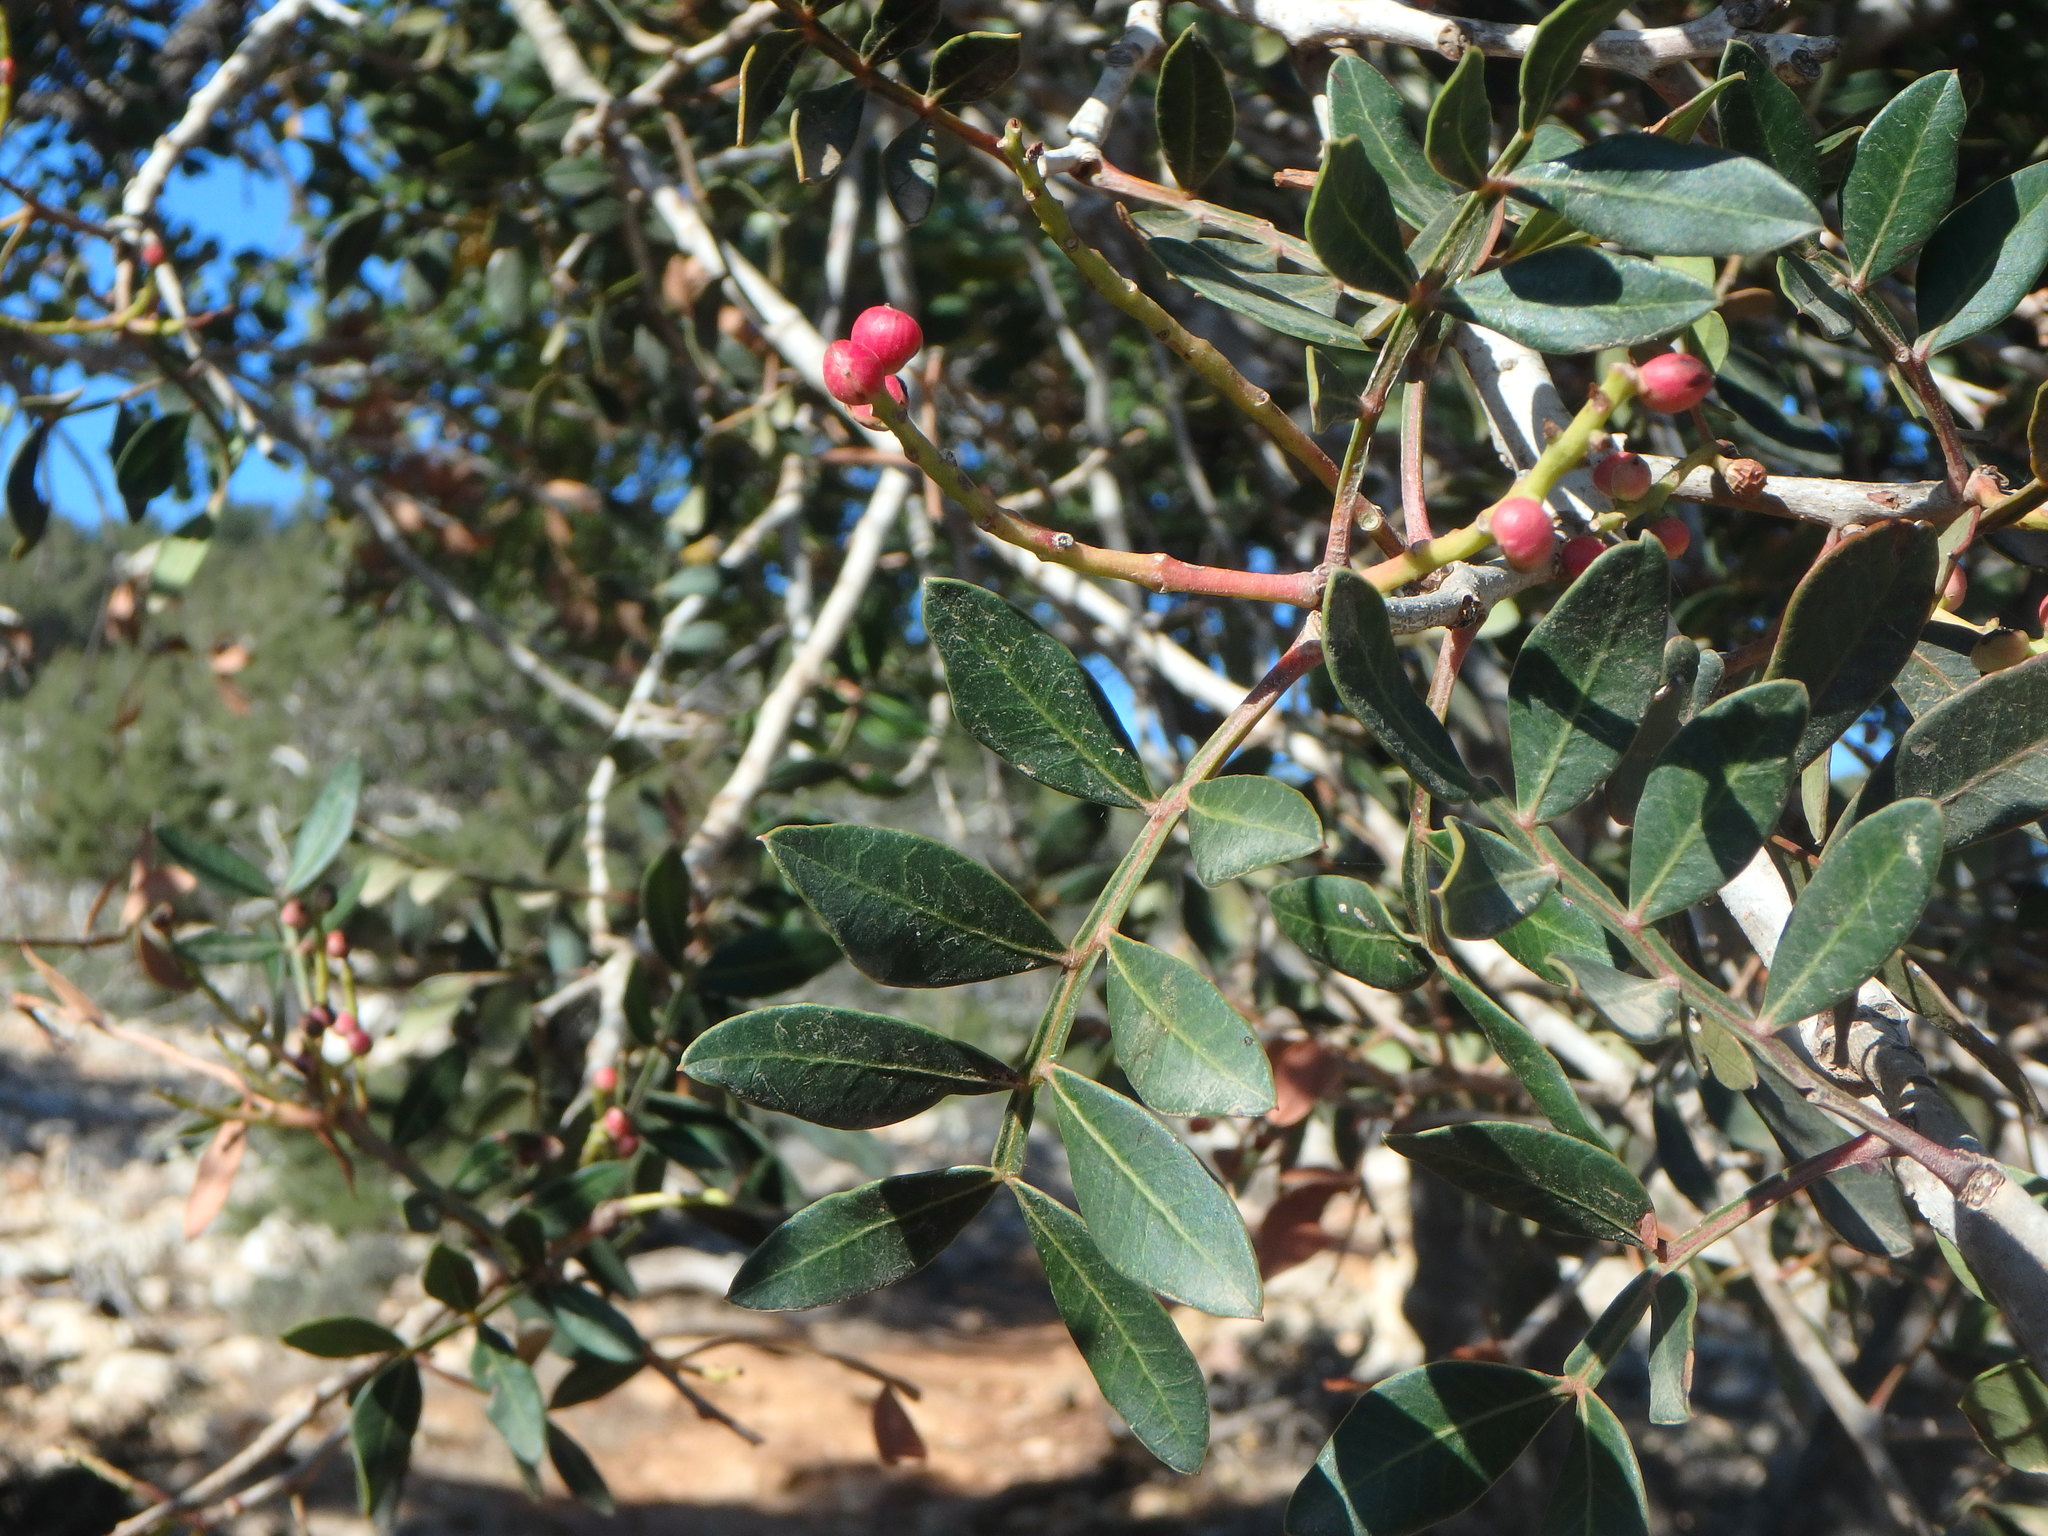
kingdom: Plantae
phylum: Tracheophyta
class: Magnoliopsida
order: Sapindales
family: Anacardiaceae
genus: Pistacia
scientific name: Pistacia lentiscus
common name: Lentisk
